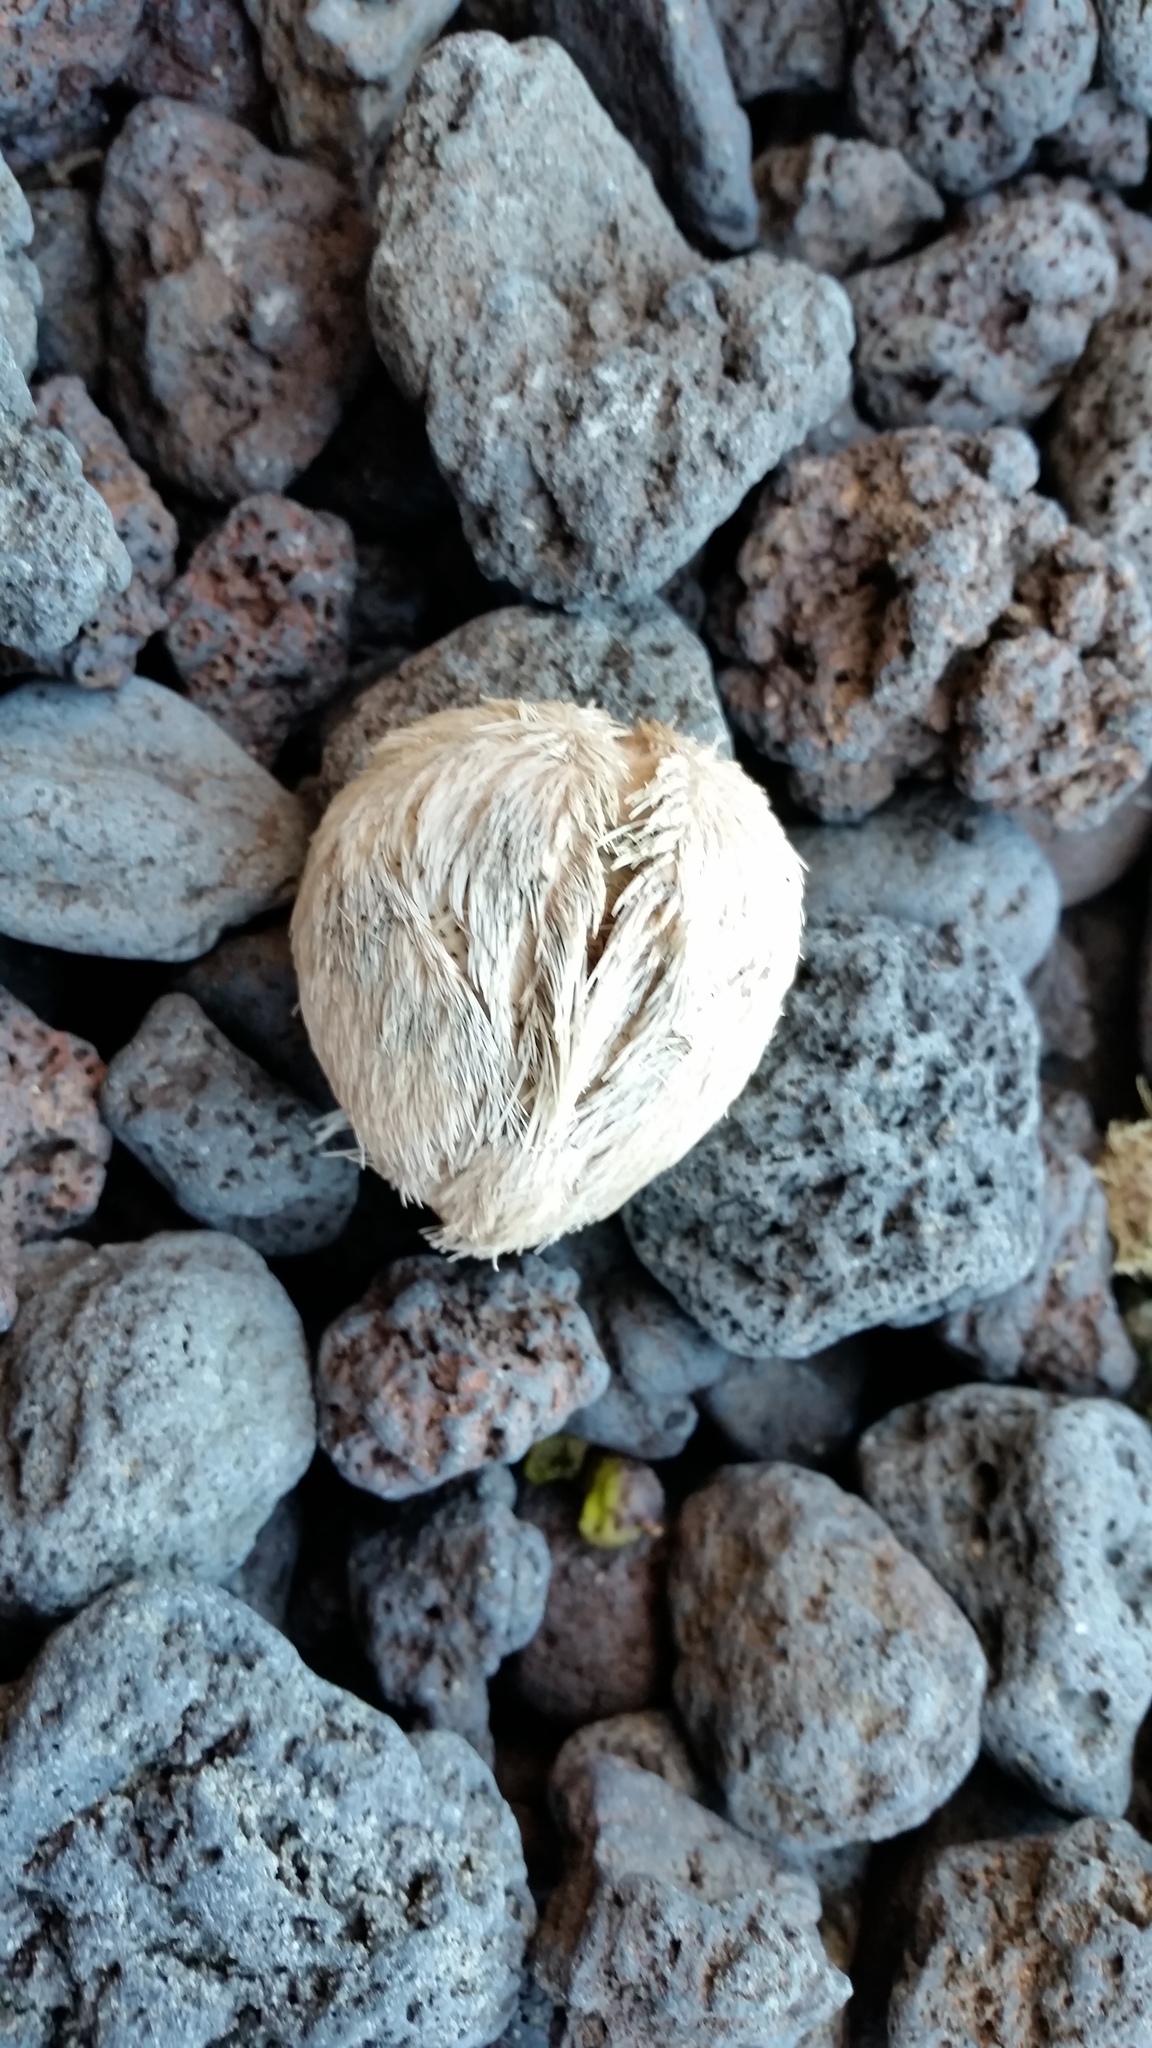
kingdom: Animalia
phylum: Echinodermata
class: Echinoidea
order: Spatangoida
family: Loveniidae
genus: Echinocardium
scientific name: Echinocardium cordatum
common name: Heart-urchin
